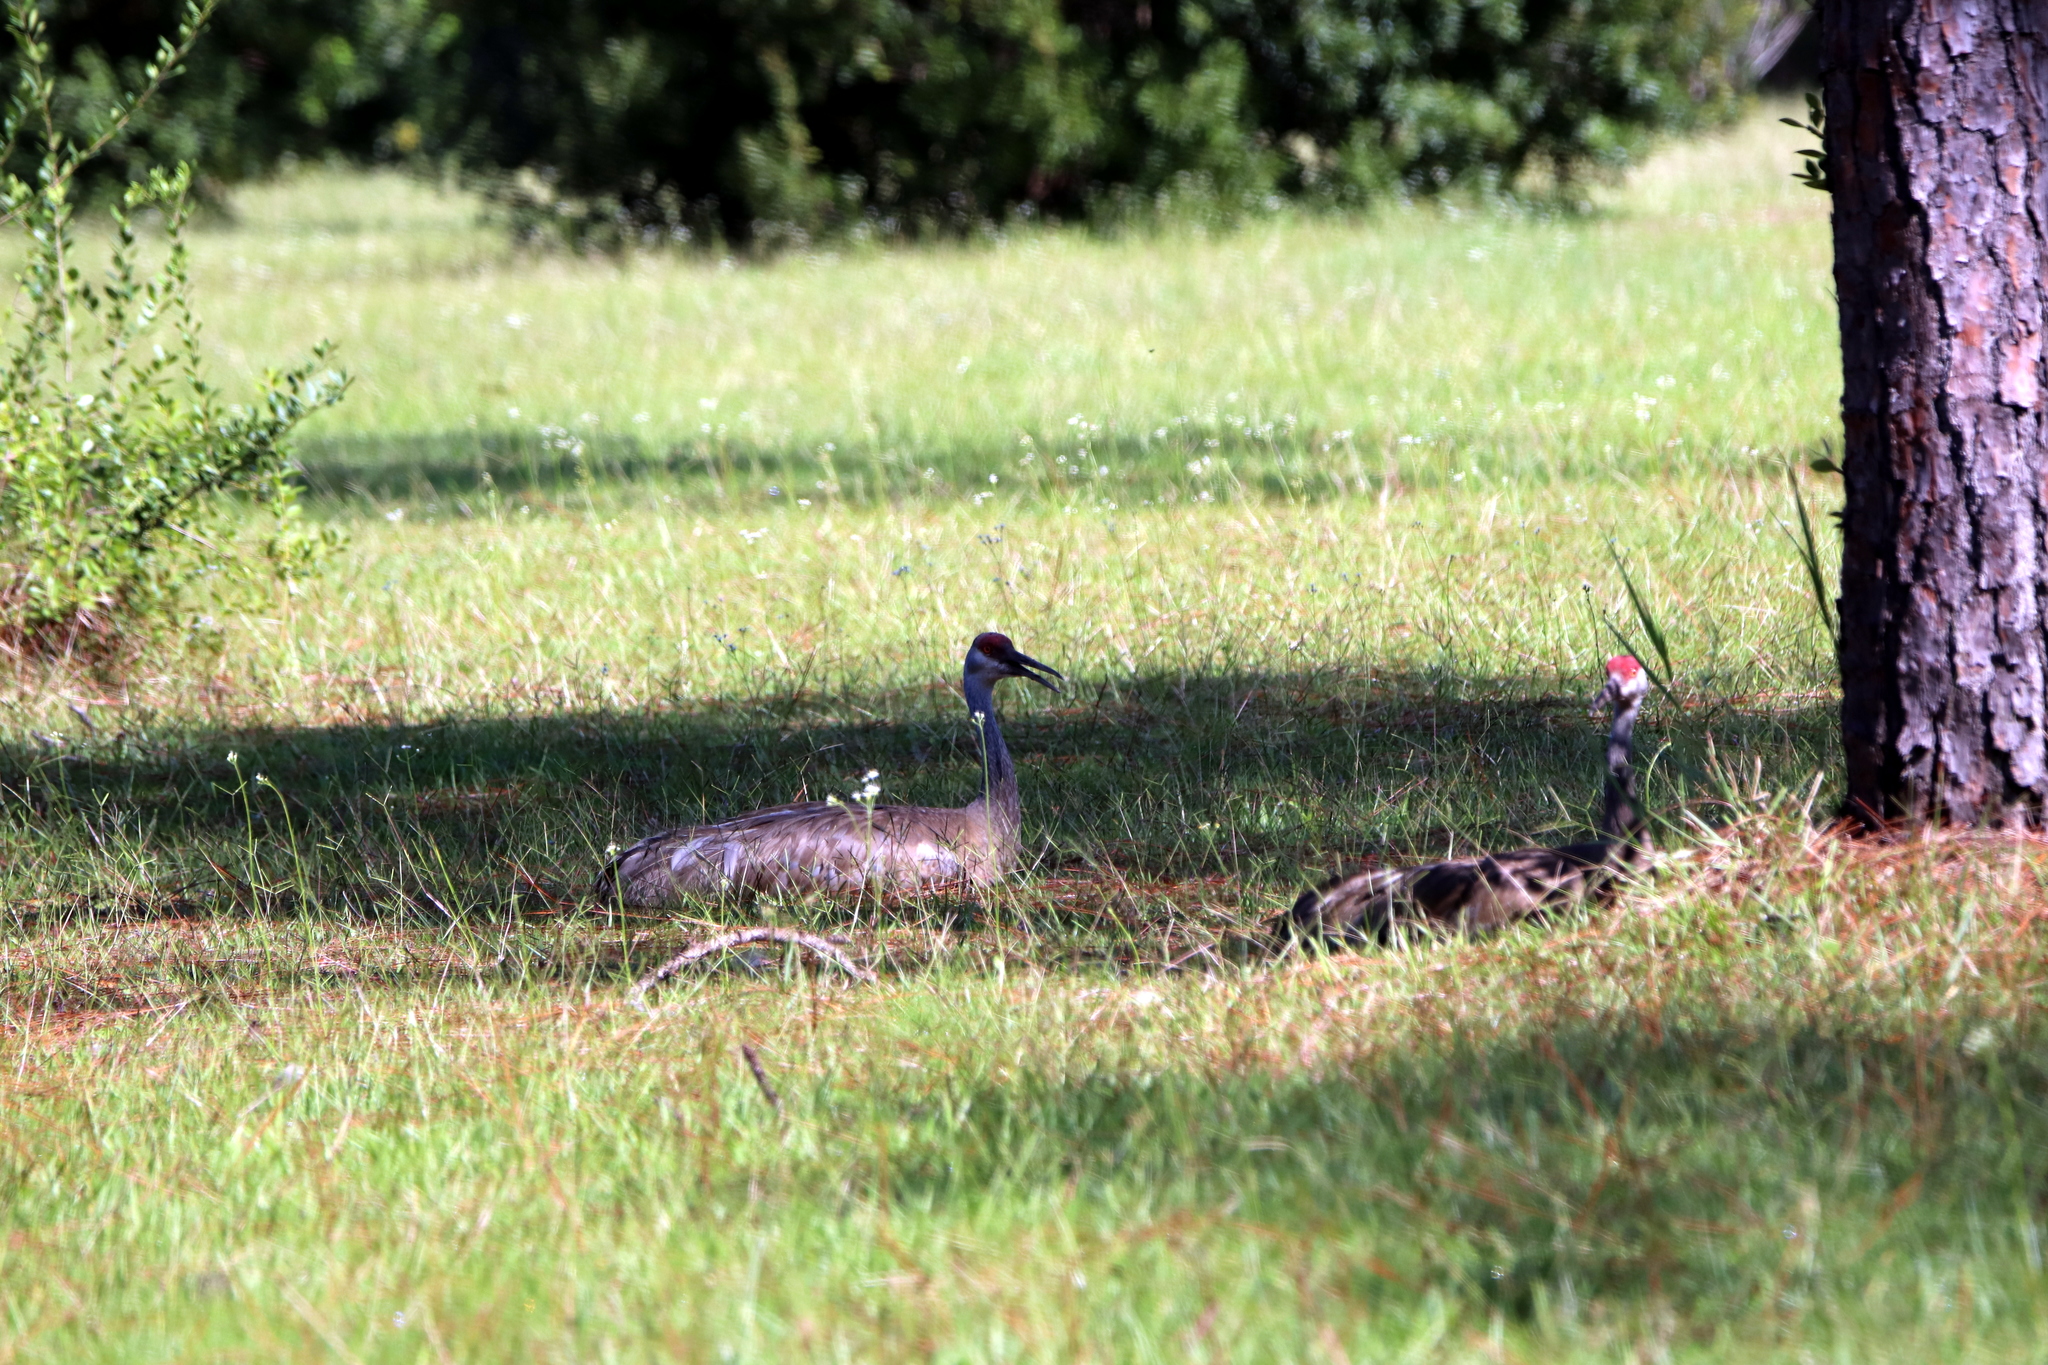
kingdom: Animalia
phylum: Chordata
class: Aves
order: Gruiformes
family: Gruidae
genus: Grus
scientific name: Grus canadensis
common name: Sandhill crane
